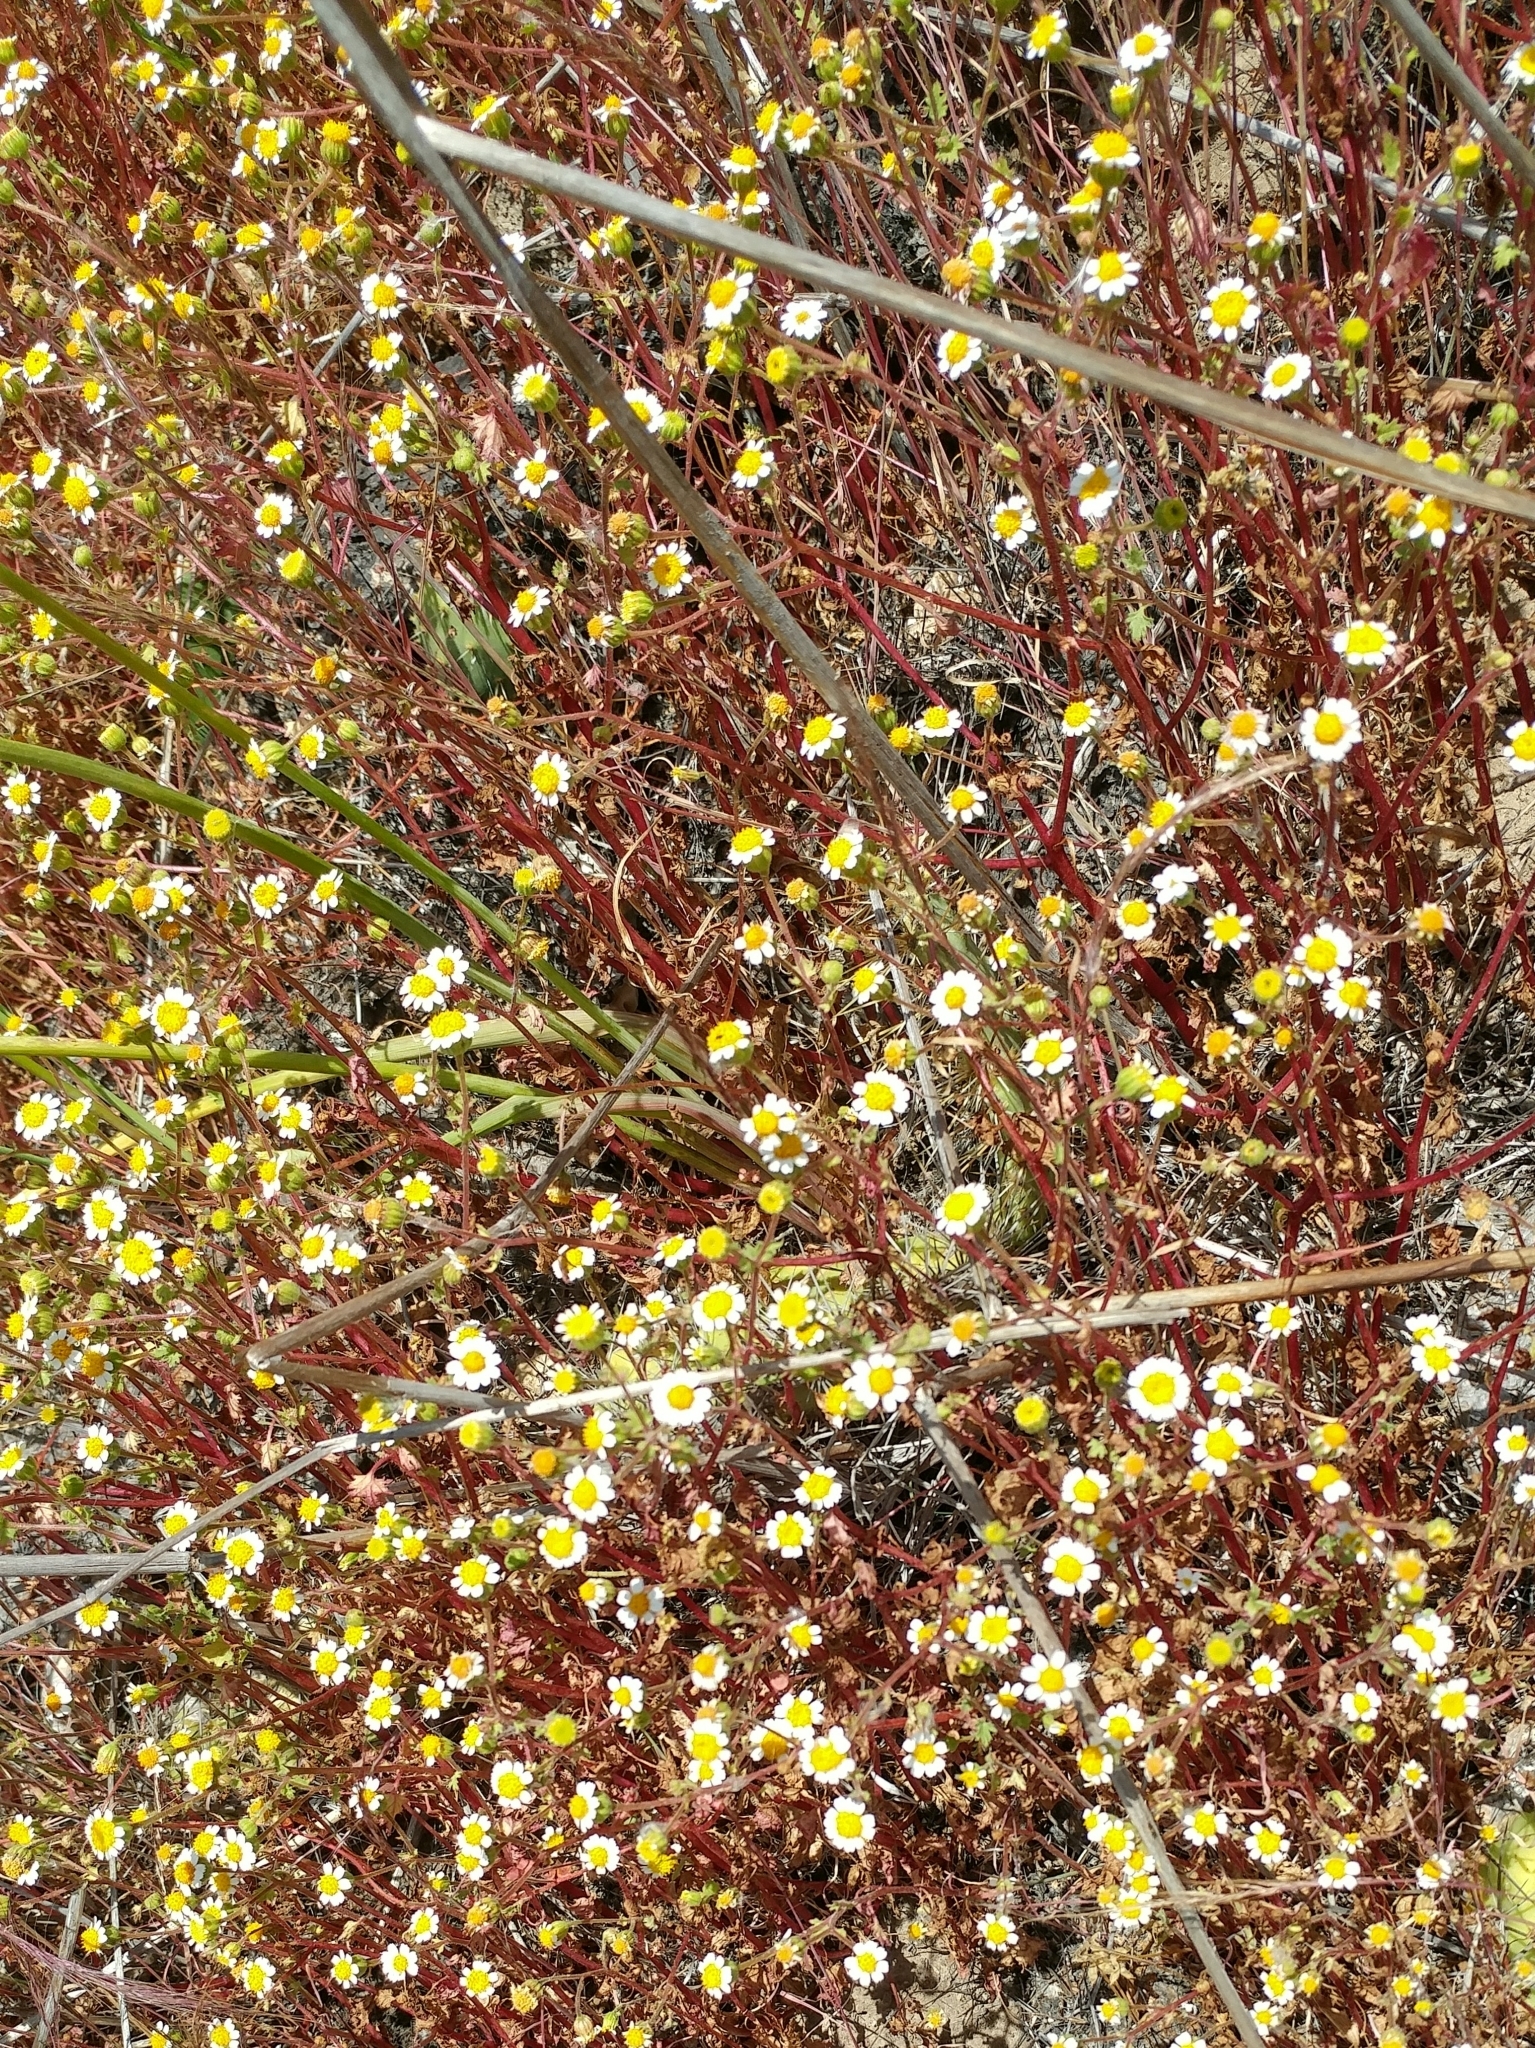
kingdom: Plantae
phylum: Tracheophyta
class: Magnoliopsida
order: Asterales
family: Asteraceae
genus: Laphamia
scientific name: Laphamia emoryi
